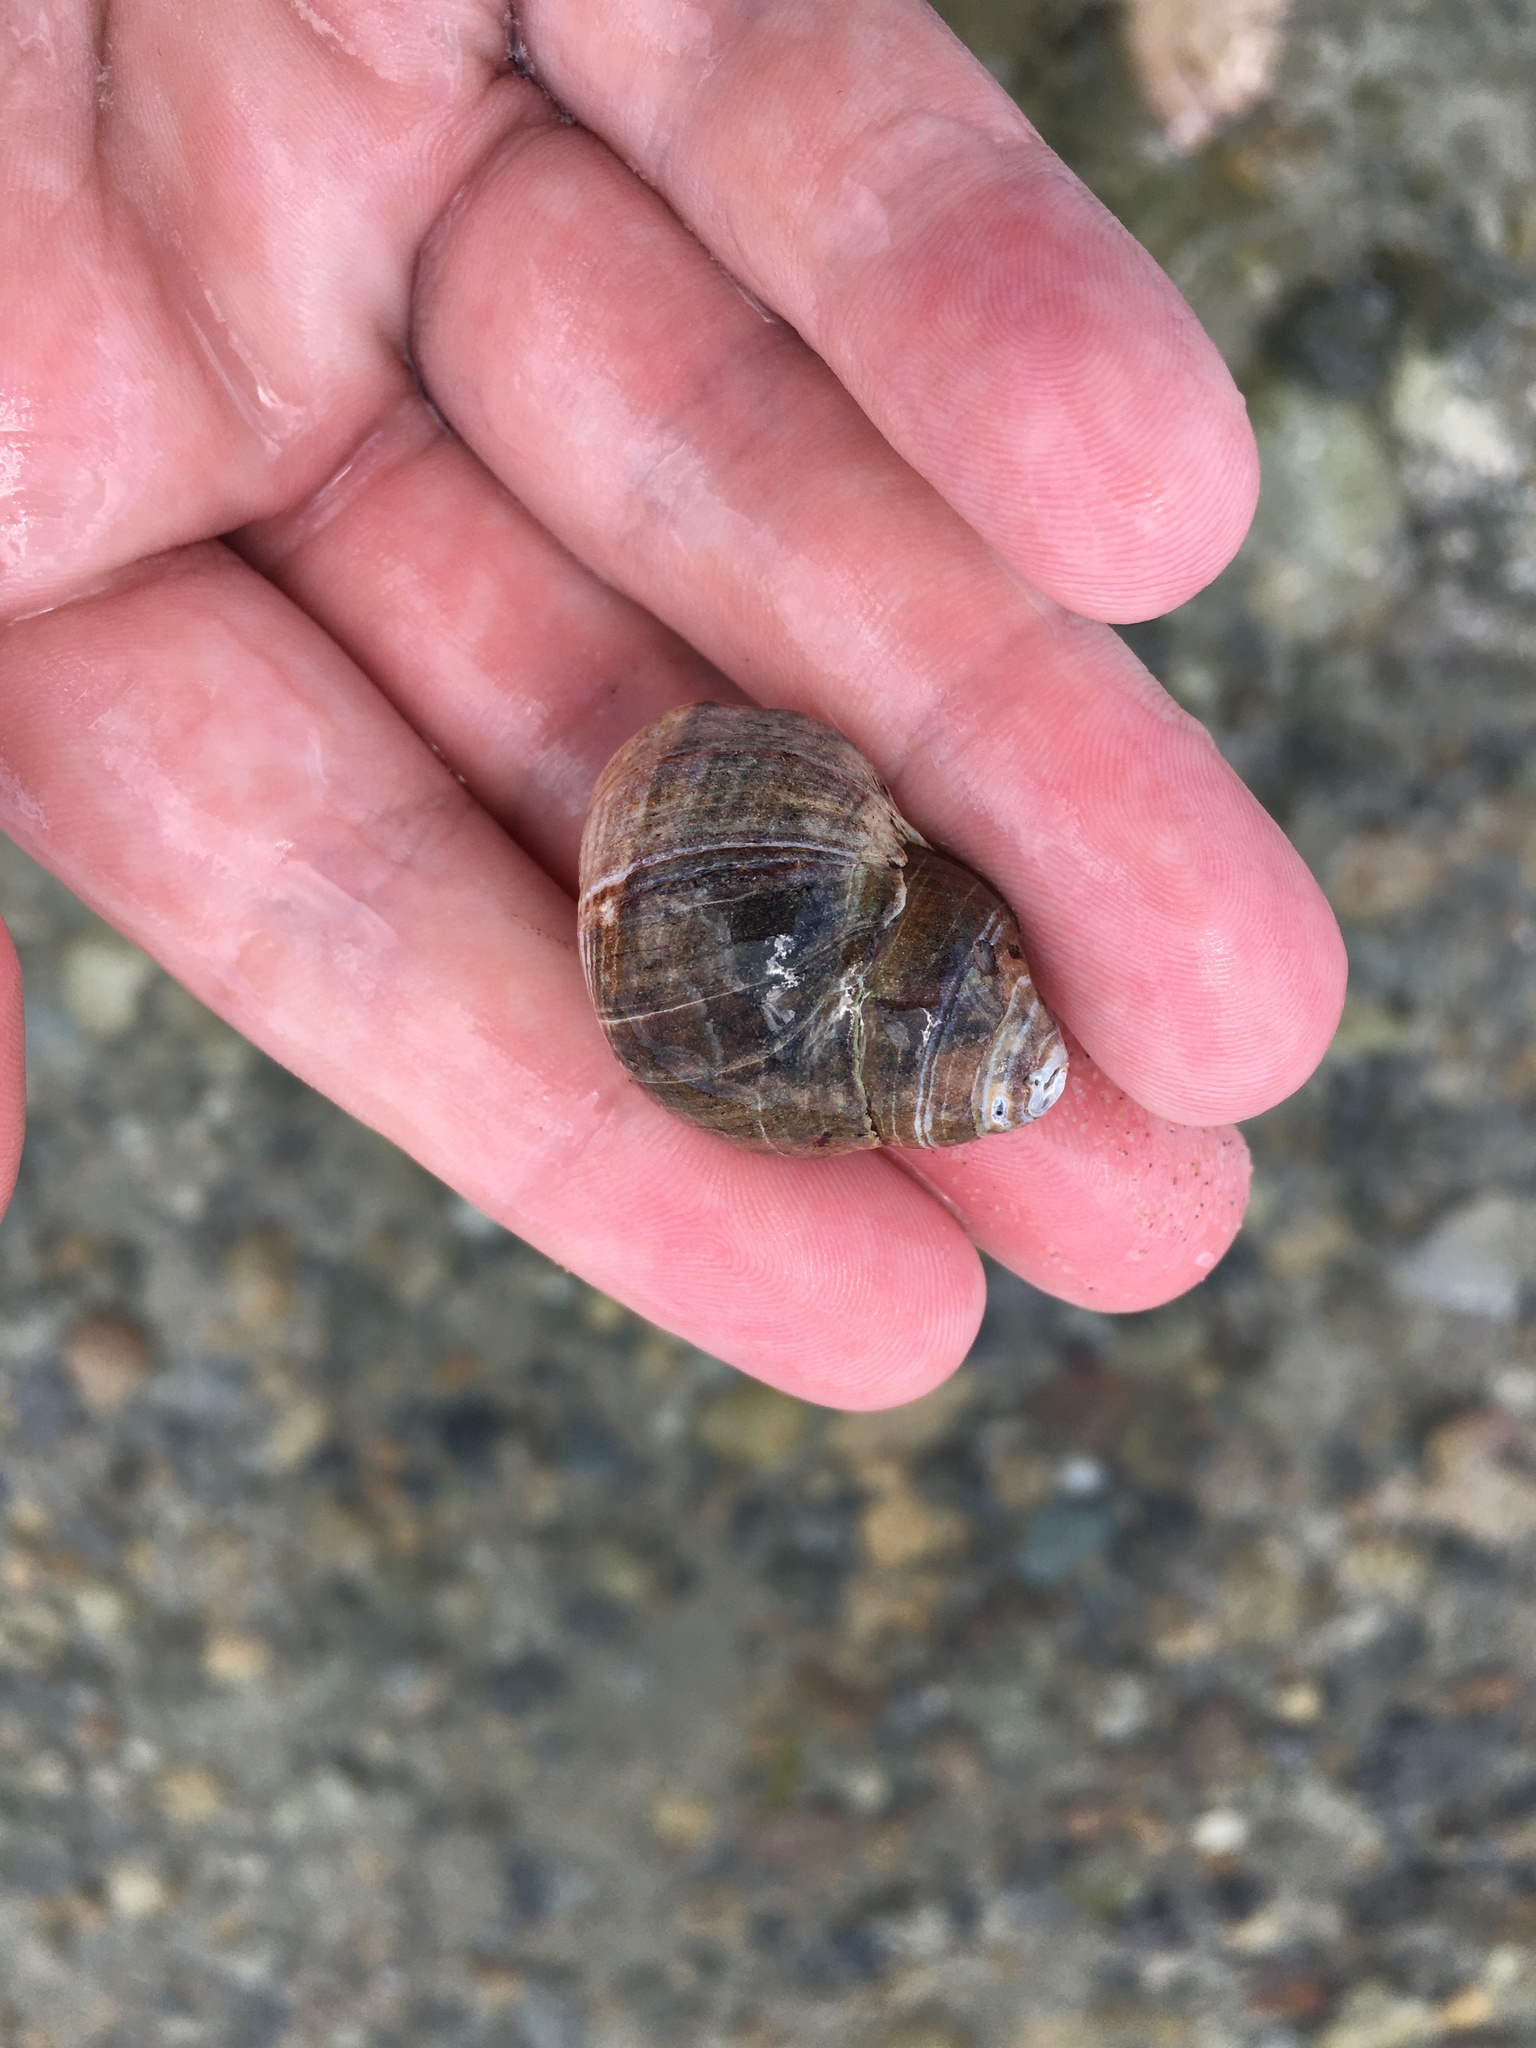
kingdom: Animalia
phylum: Mollusca
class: Gastropoda
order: Littorinimorpha
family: Littorinidae
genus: Littorina
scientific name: Littorina littorea
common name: Common periwinkle
